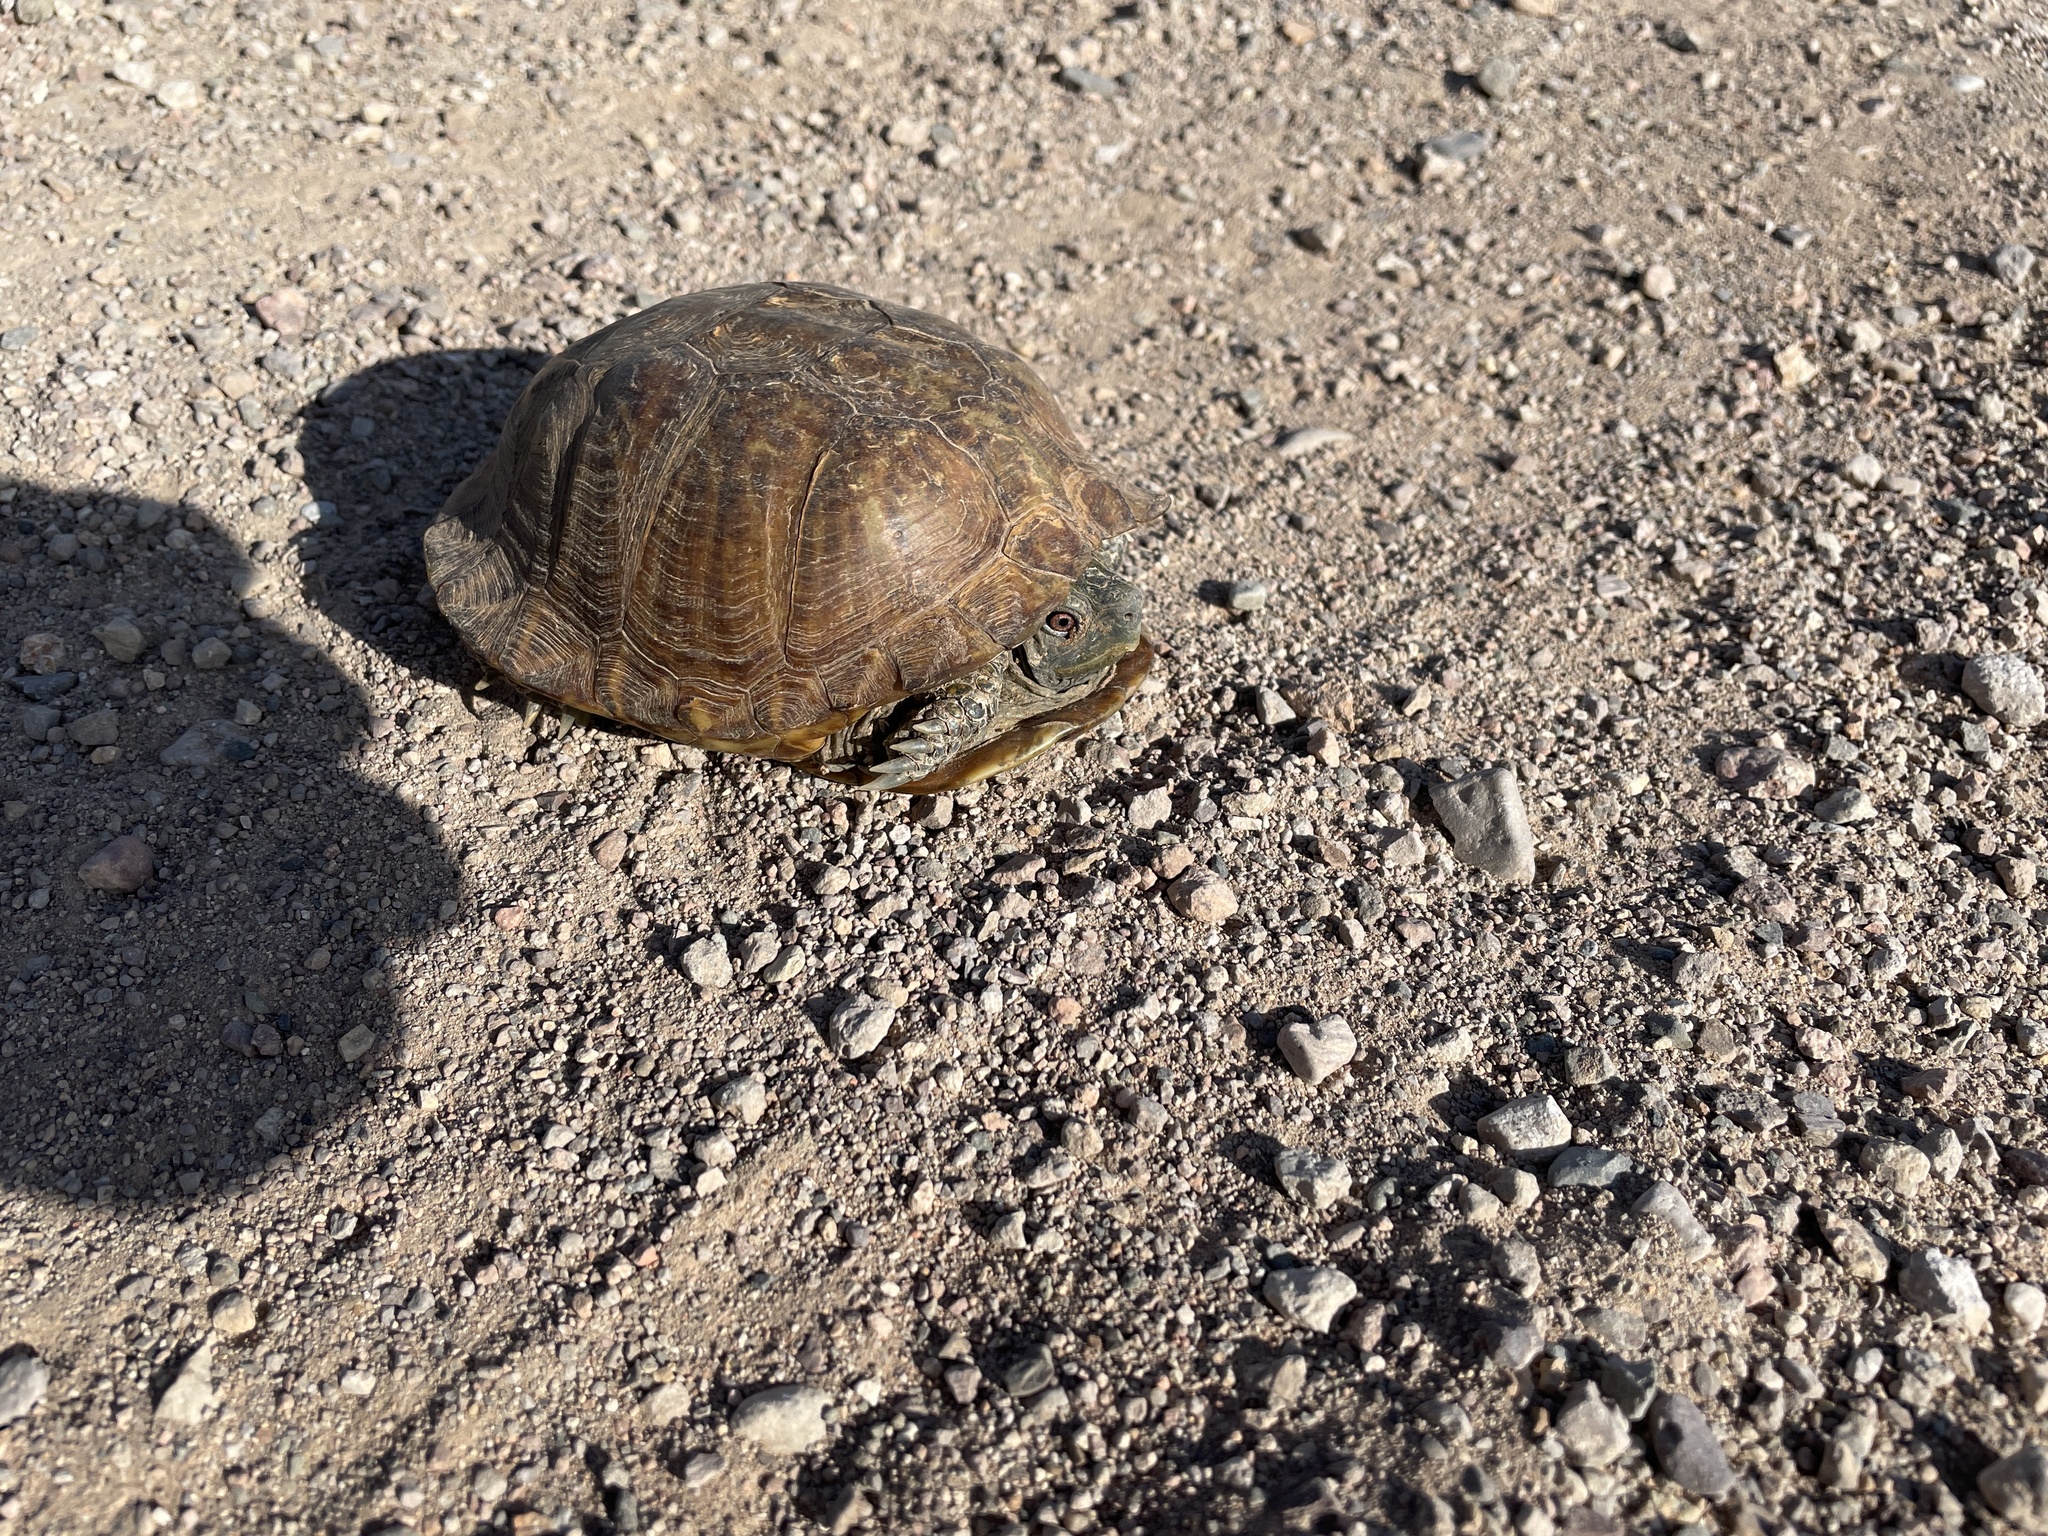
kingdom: Animalia
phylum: Chordata
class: Testudines
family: Emydidae
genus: Terrapene
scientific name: Terrapene ornata
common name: Western box turtle
